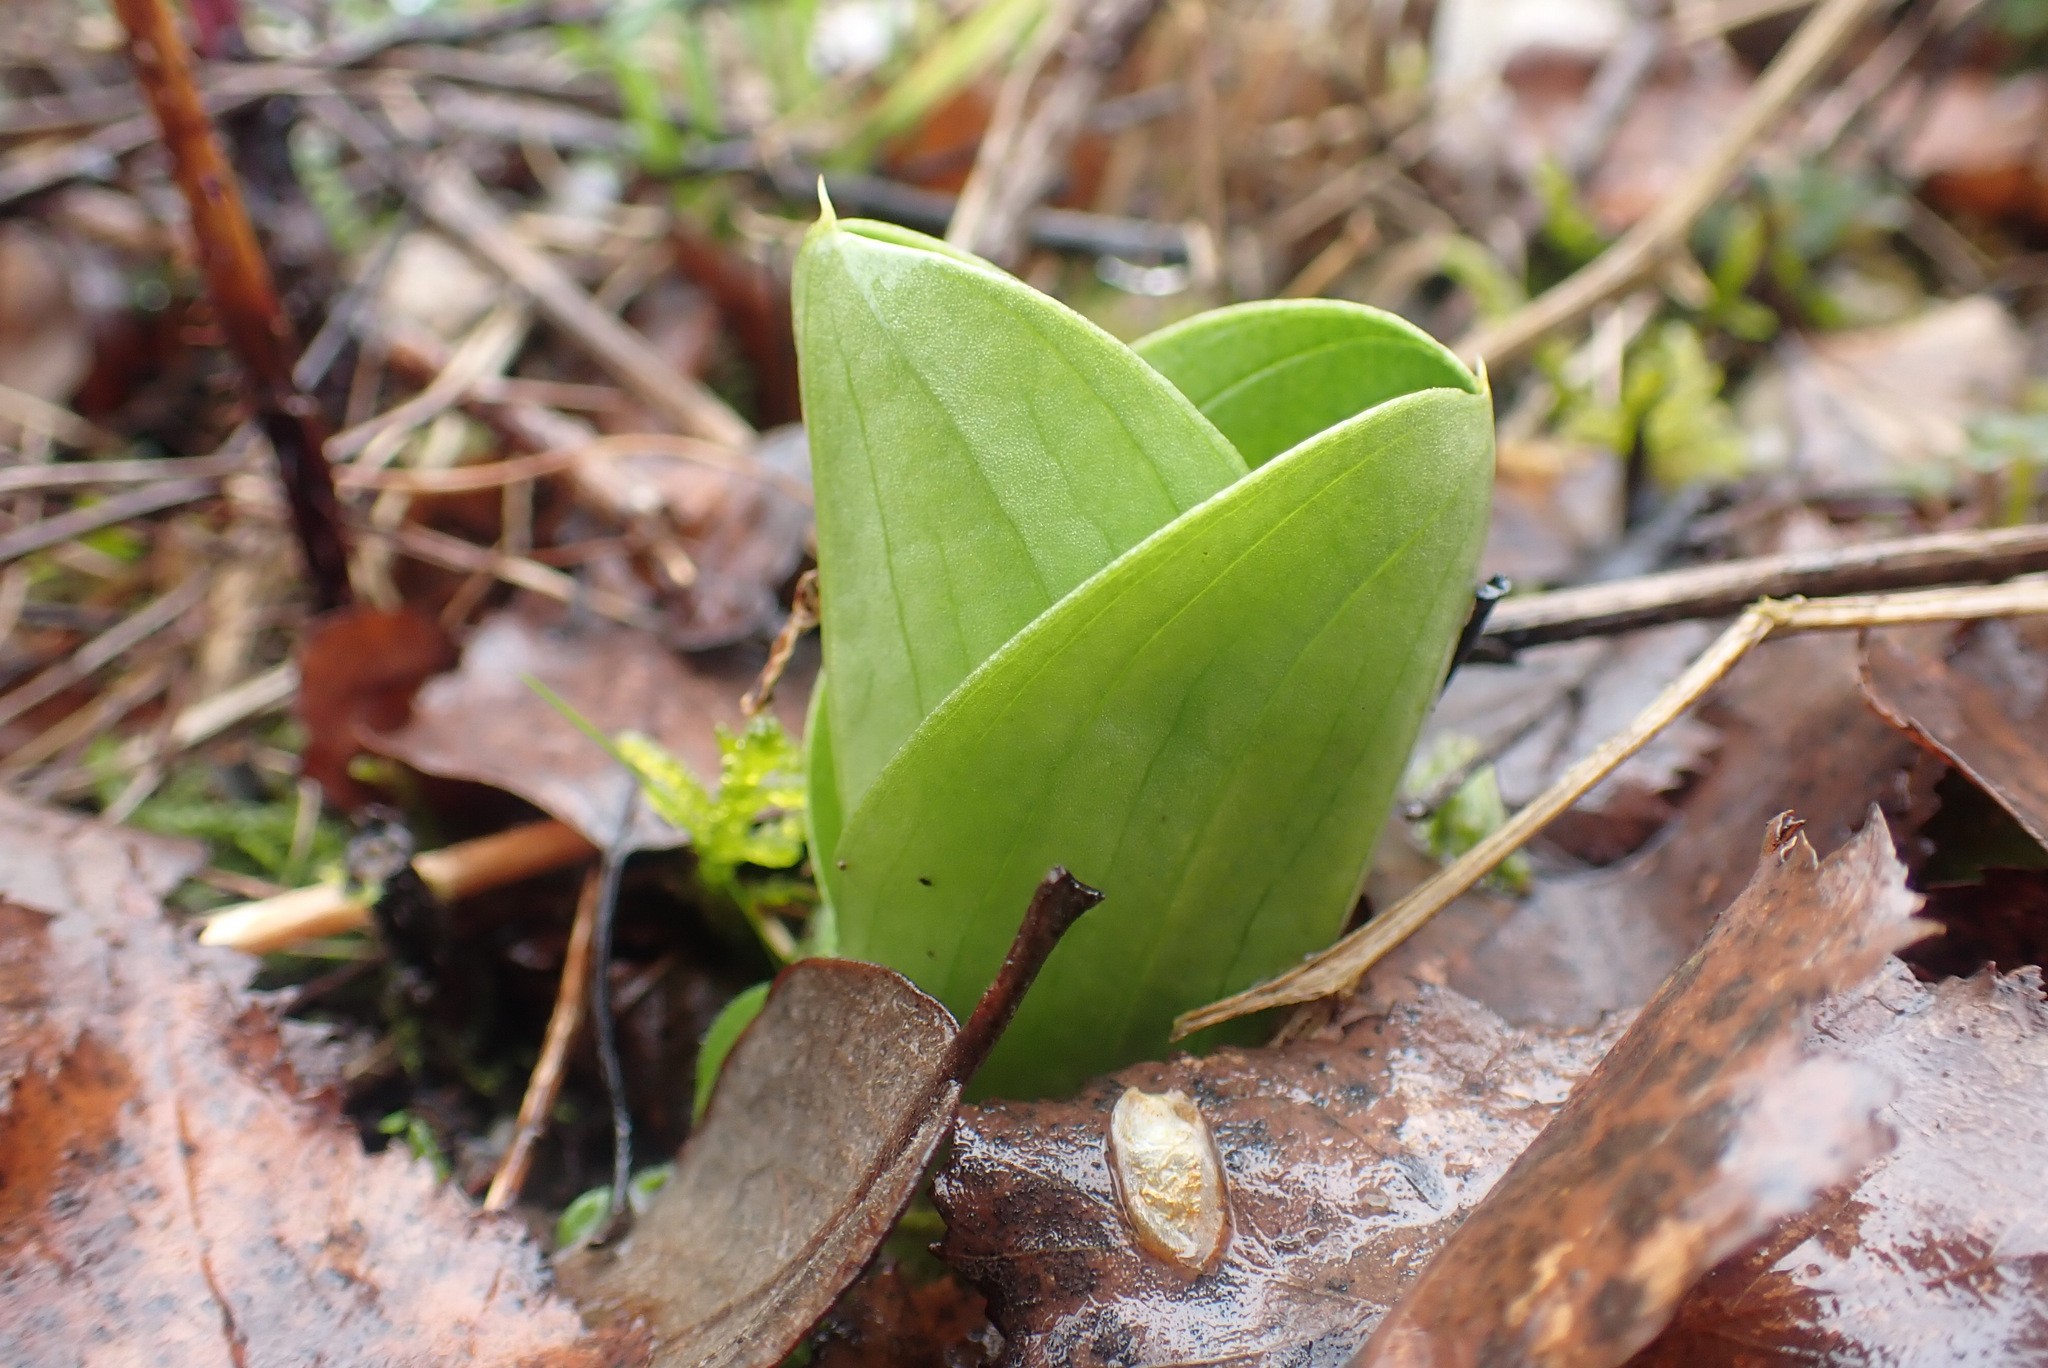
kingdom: Plantae
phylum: Tracheophyta
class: Liliopsida
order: Asparagales
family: Orchidaceae
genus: Neottia
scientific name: Neottia ovata
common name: Common twayblade
